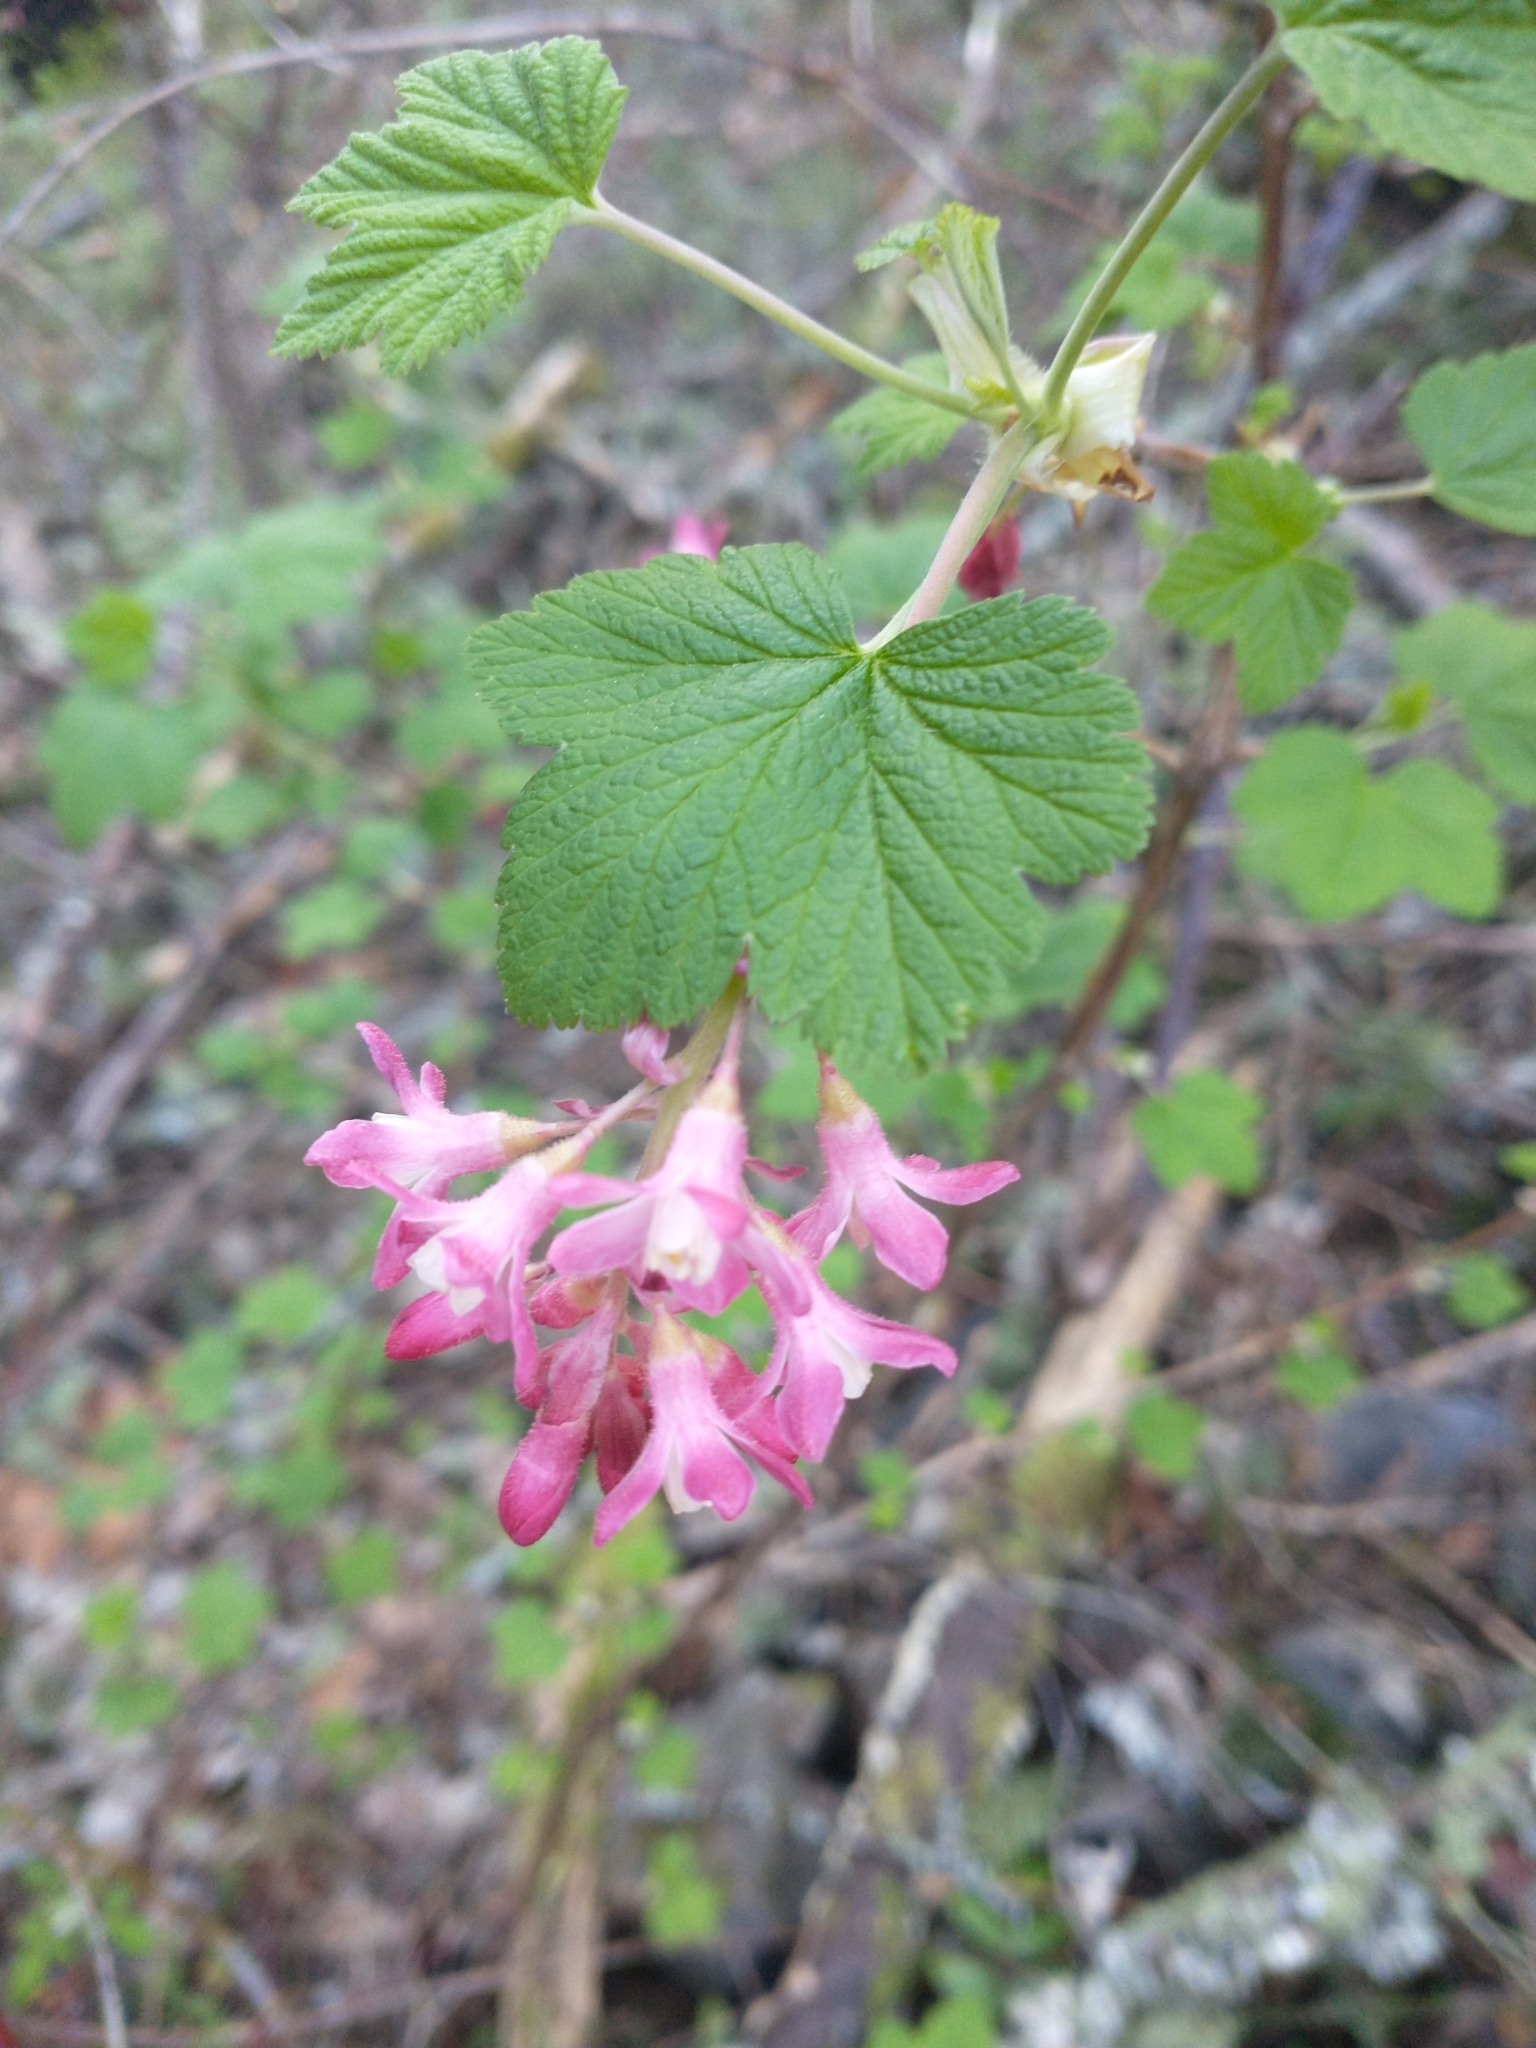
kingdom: Plantae
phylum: Tracheophyta
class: Magnoliopsida
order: Saxifragales
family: Grossulariaceae
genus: Ribes
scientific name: Ribes sanguineum
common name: Flowering currant
